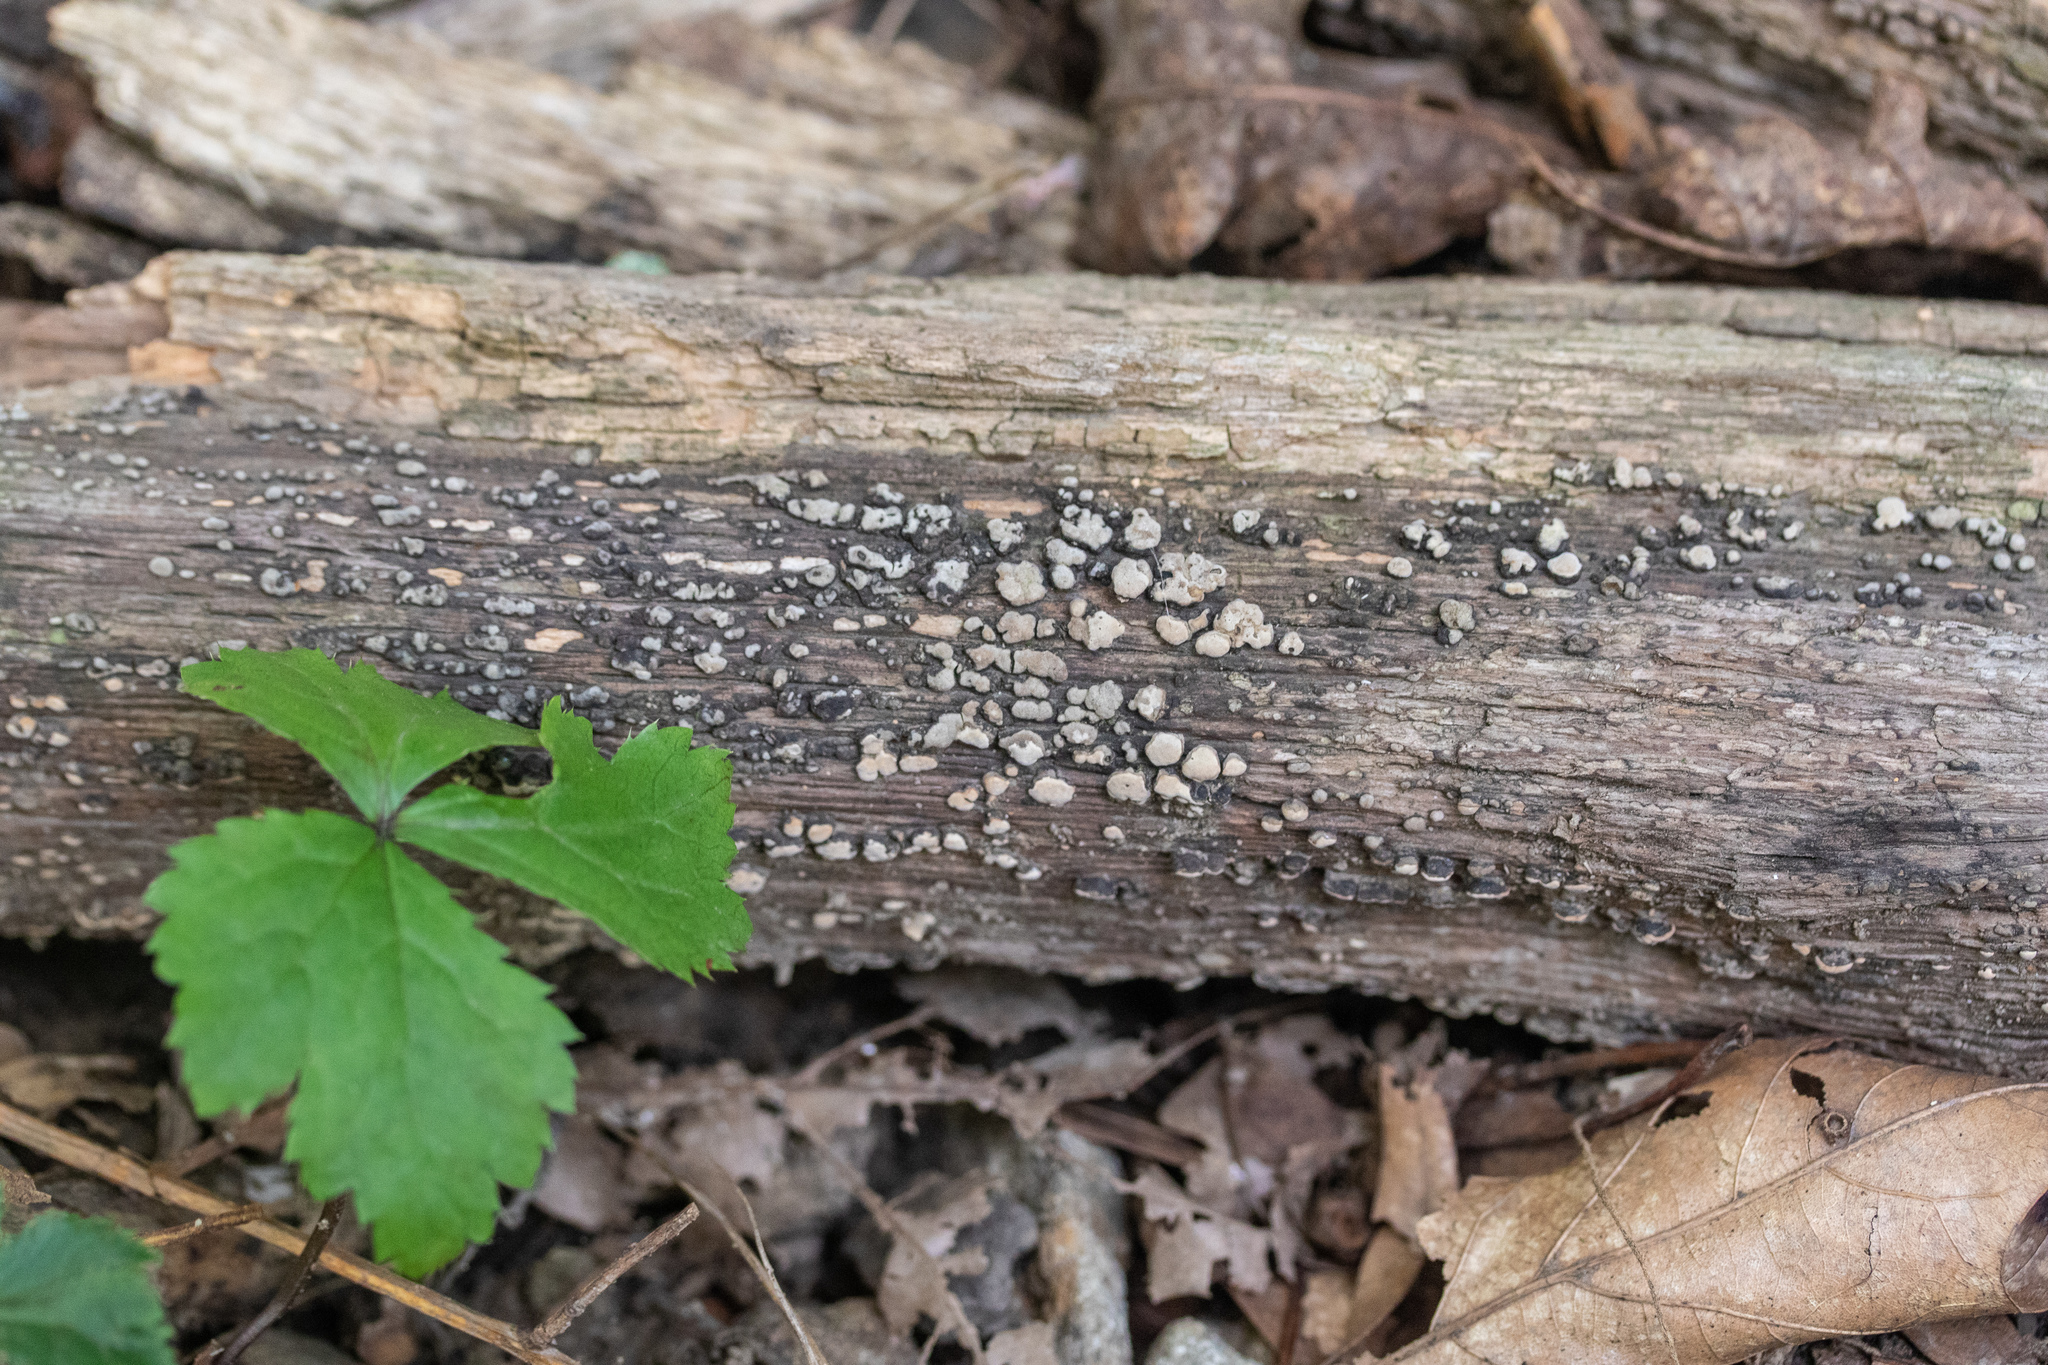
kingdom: Fungi
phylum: Basidiomycota
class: Agaricomycetes
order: Russulales
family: Stereaceae
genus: Xylobolus
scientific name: Xylobolus frustulatus
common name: Ceramic parchment
